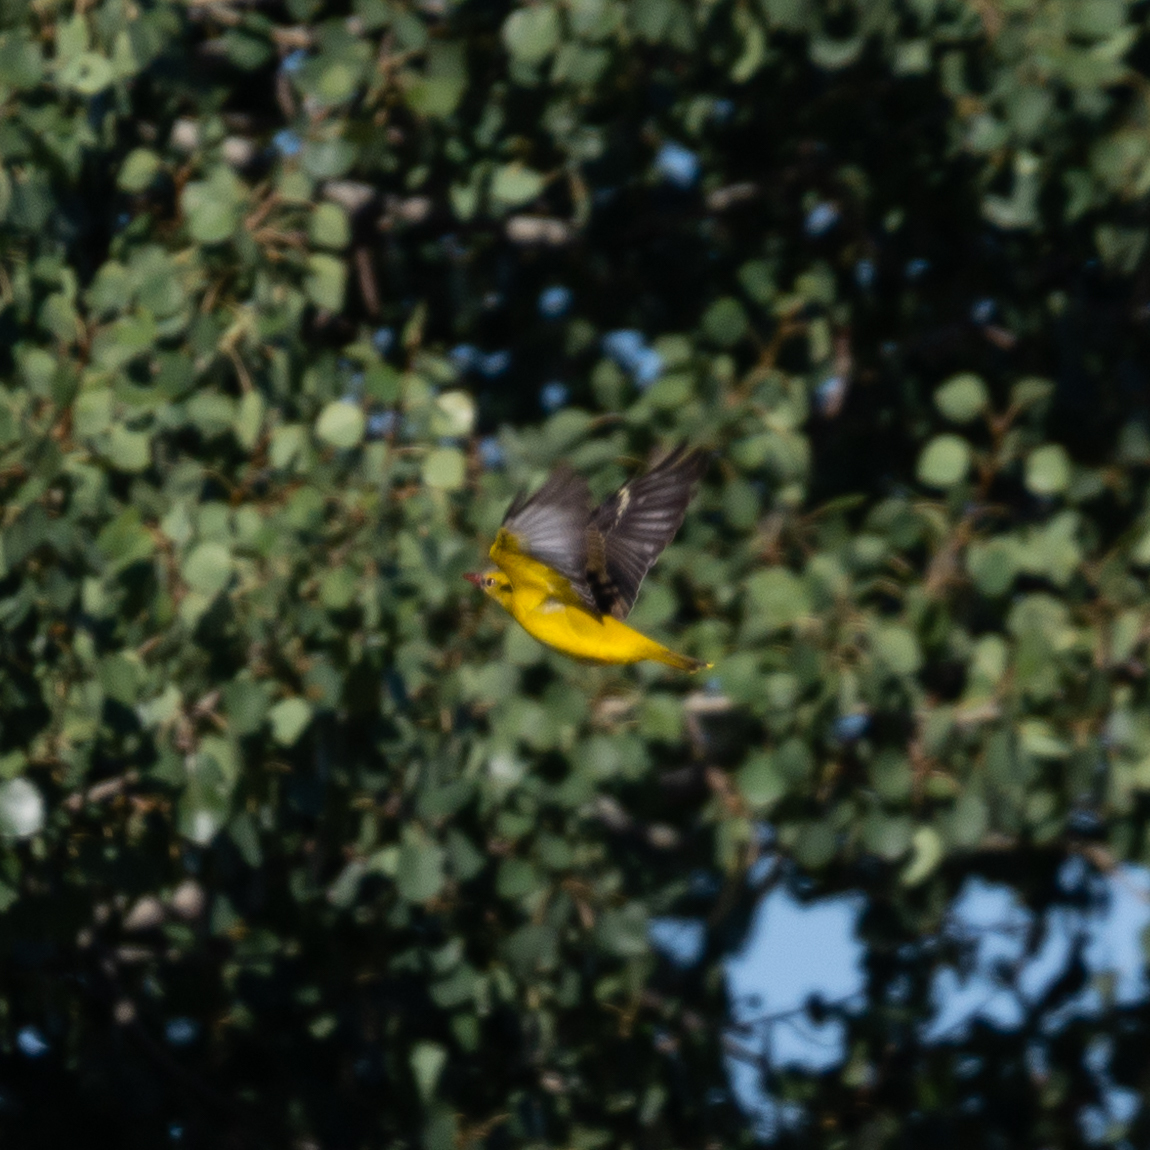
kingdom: Animalia
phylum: Chordata
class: Aves
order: Passeriformes
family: Oriolidae
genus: Oriolus
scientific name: Oriolus oriolus
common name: Eurasian golden oriole
